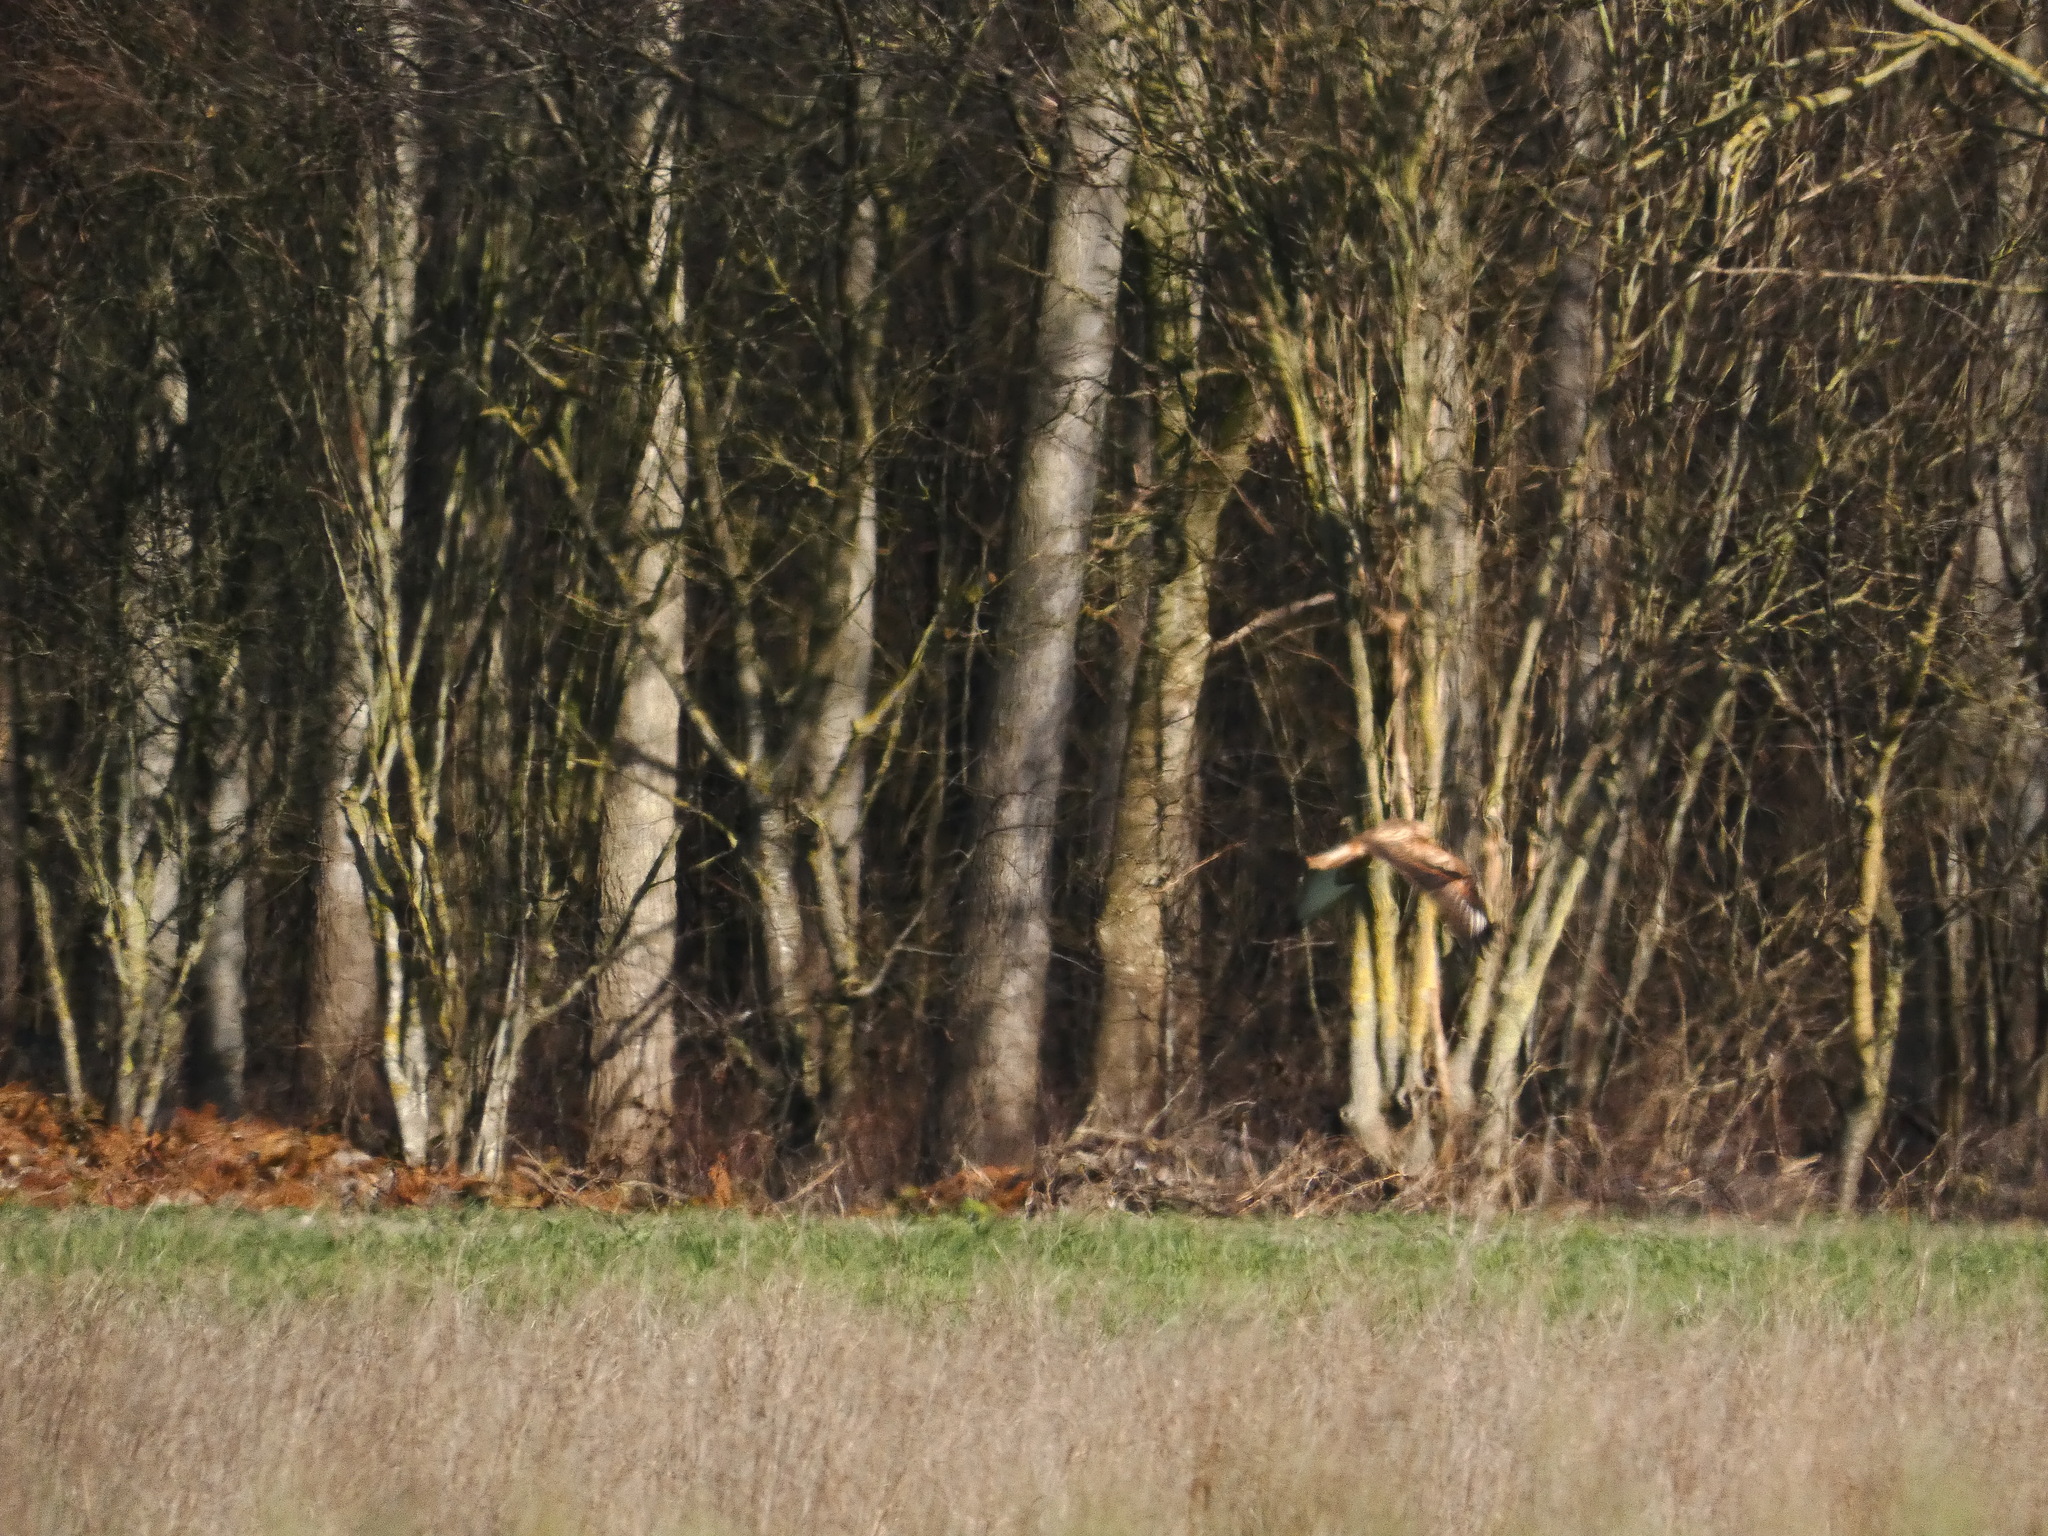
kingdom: Animalia
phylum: Chordata
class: Aves
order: Accipitriformes
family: Accipitridae
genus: Buteo
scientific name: Buteo rufinus
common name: Long-legged buzzard
